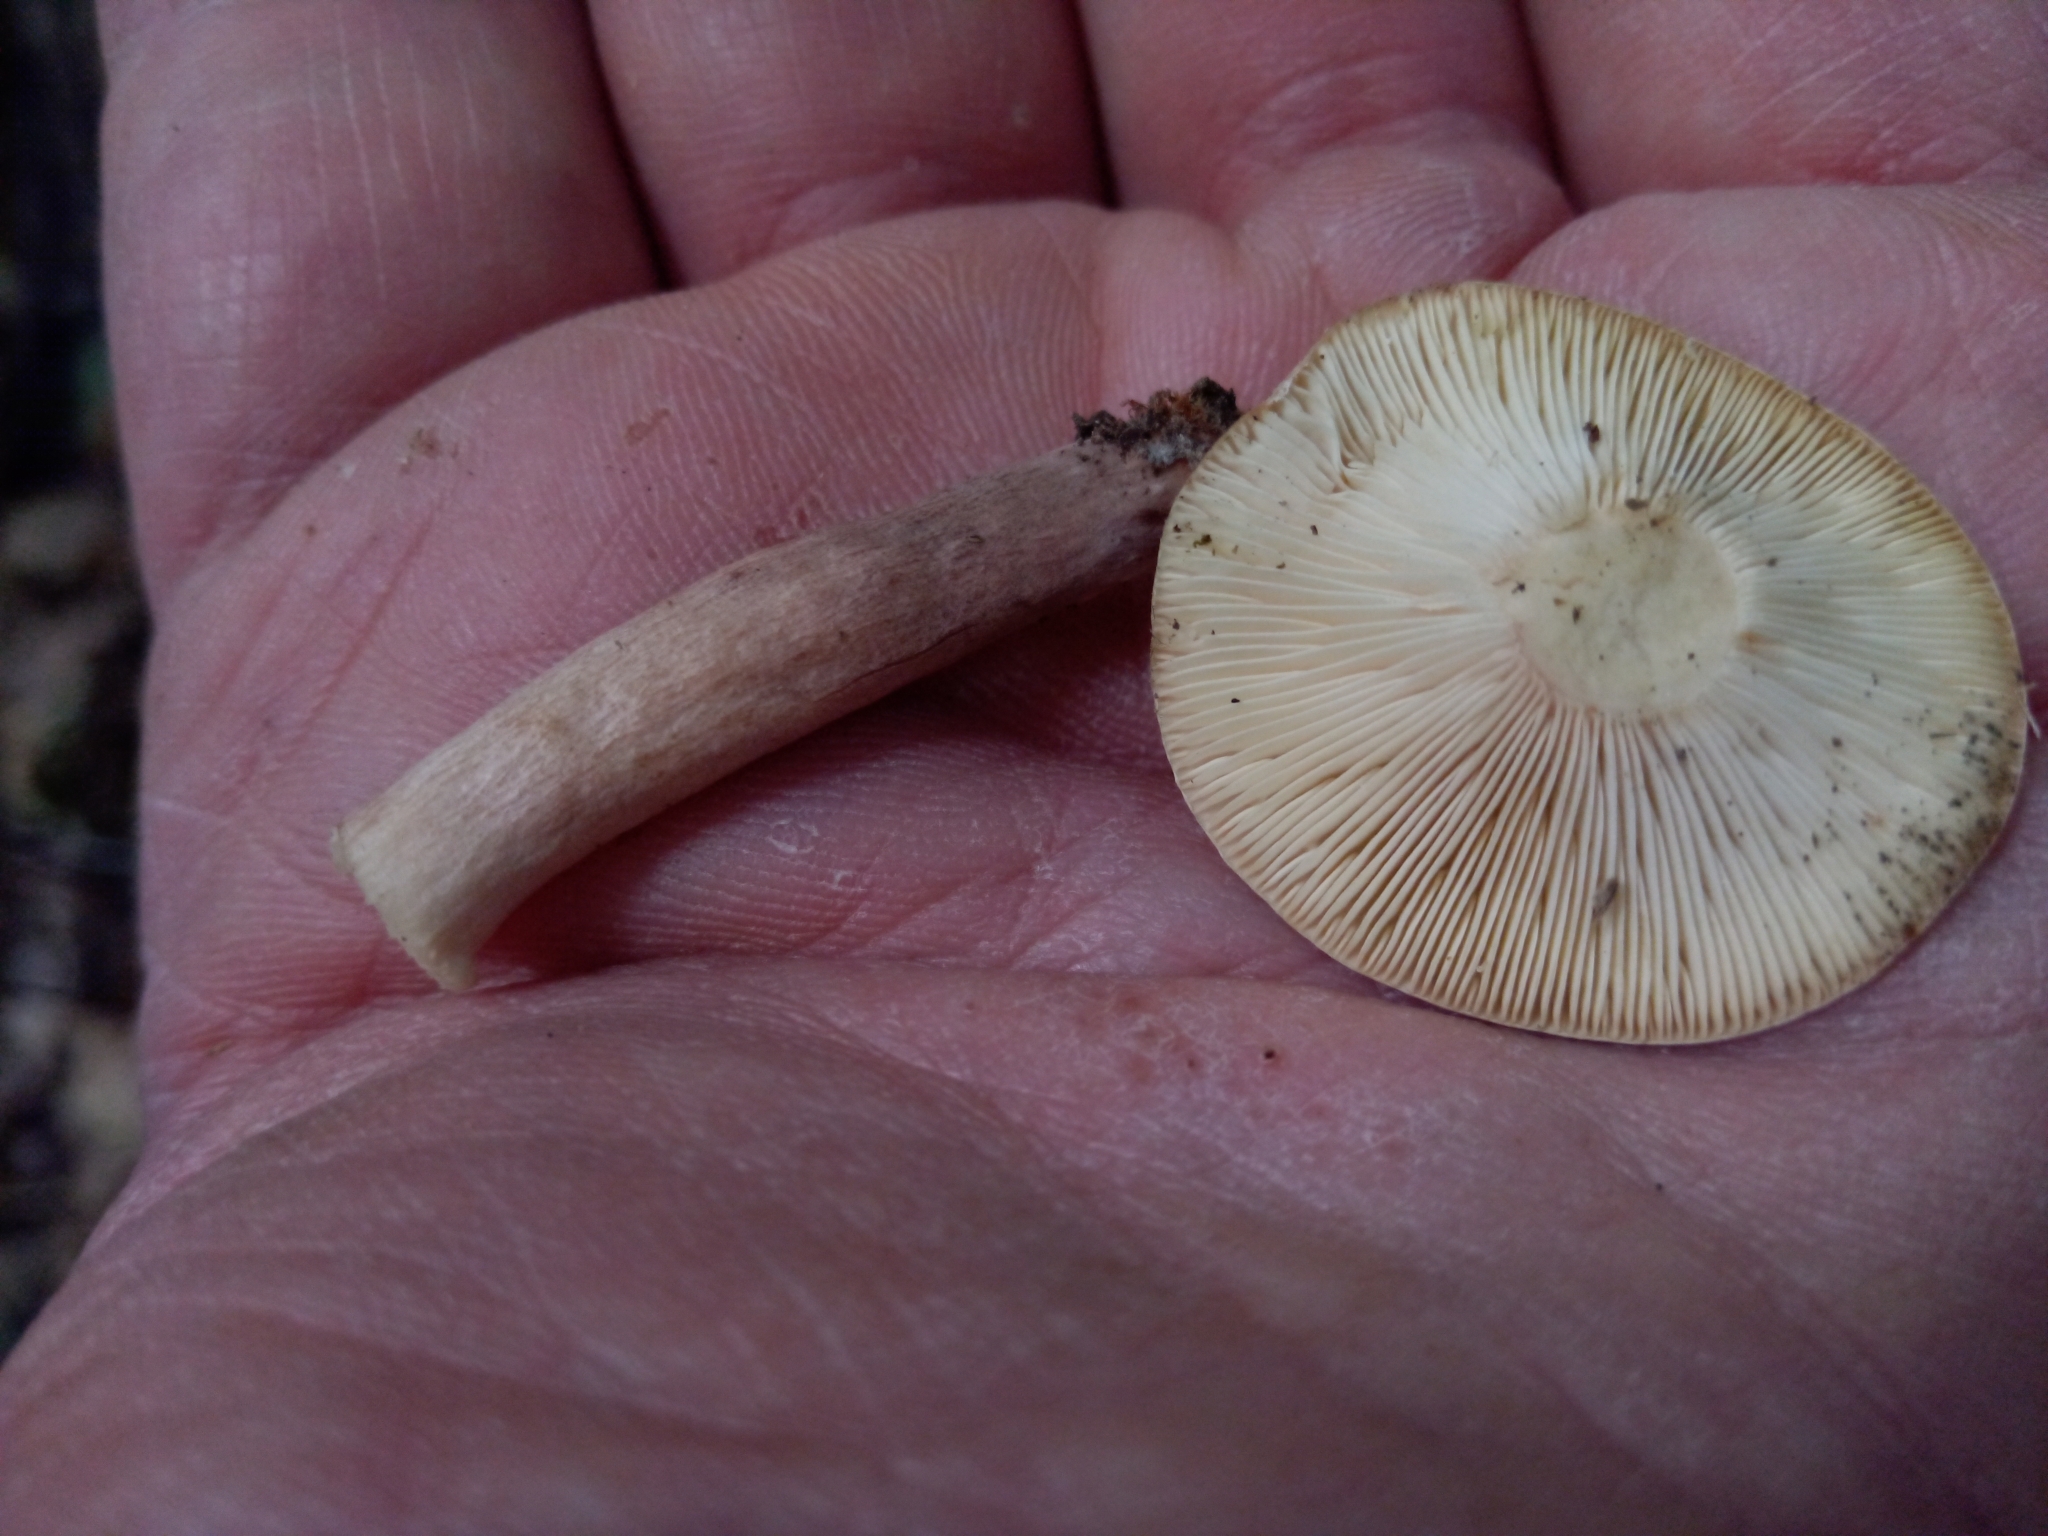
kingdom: Fungi
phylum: Basidiomycota
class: Agaricomycetes
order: Russulales
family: Russulaceae
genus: Lactarius
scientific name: Lactarius quietus
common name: Oak milk-cap
